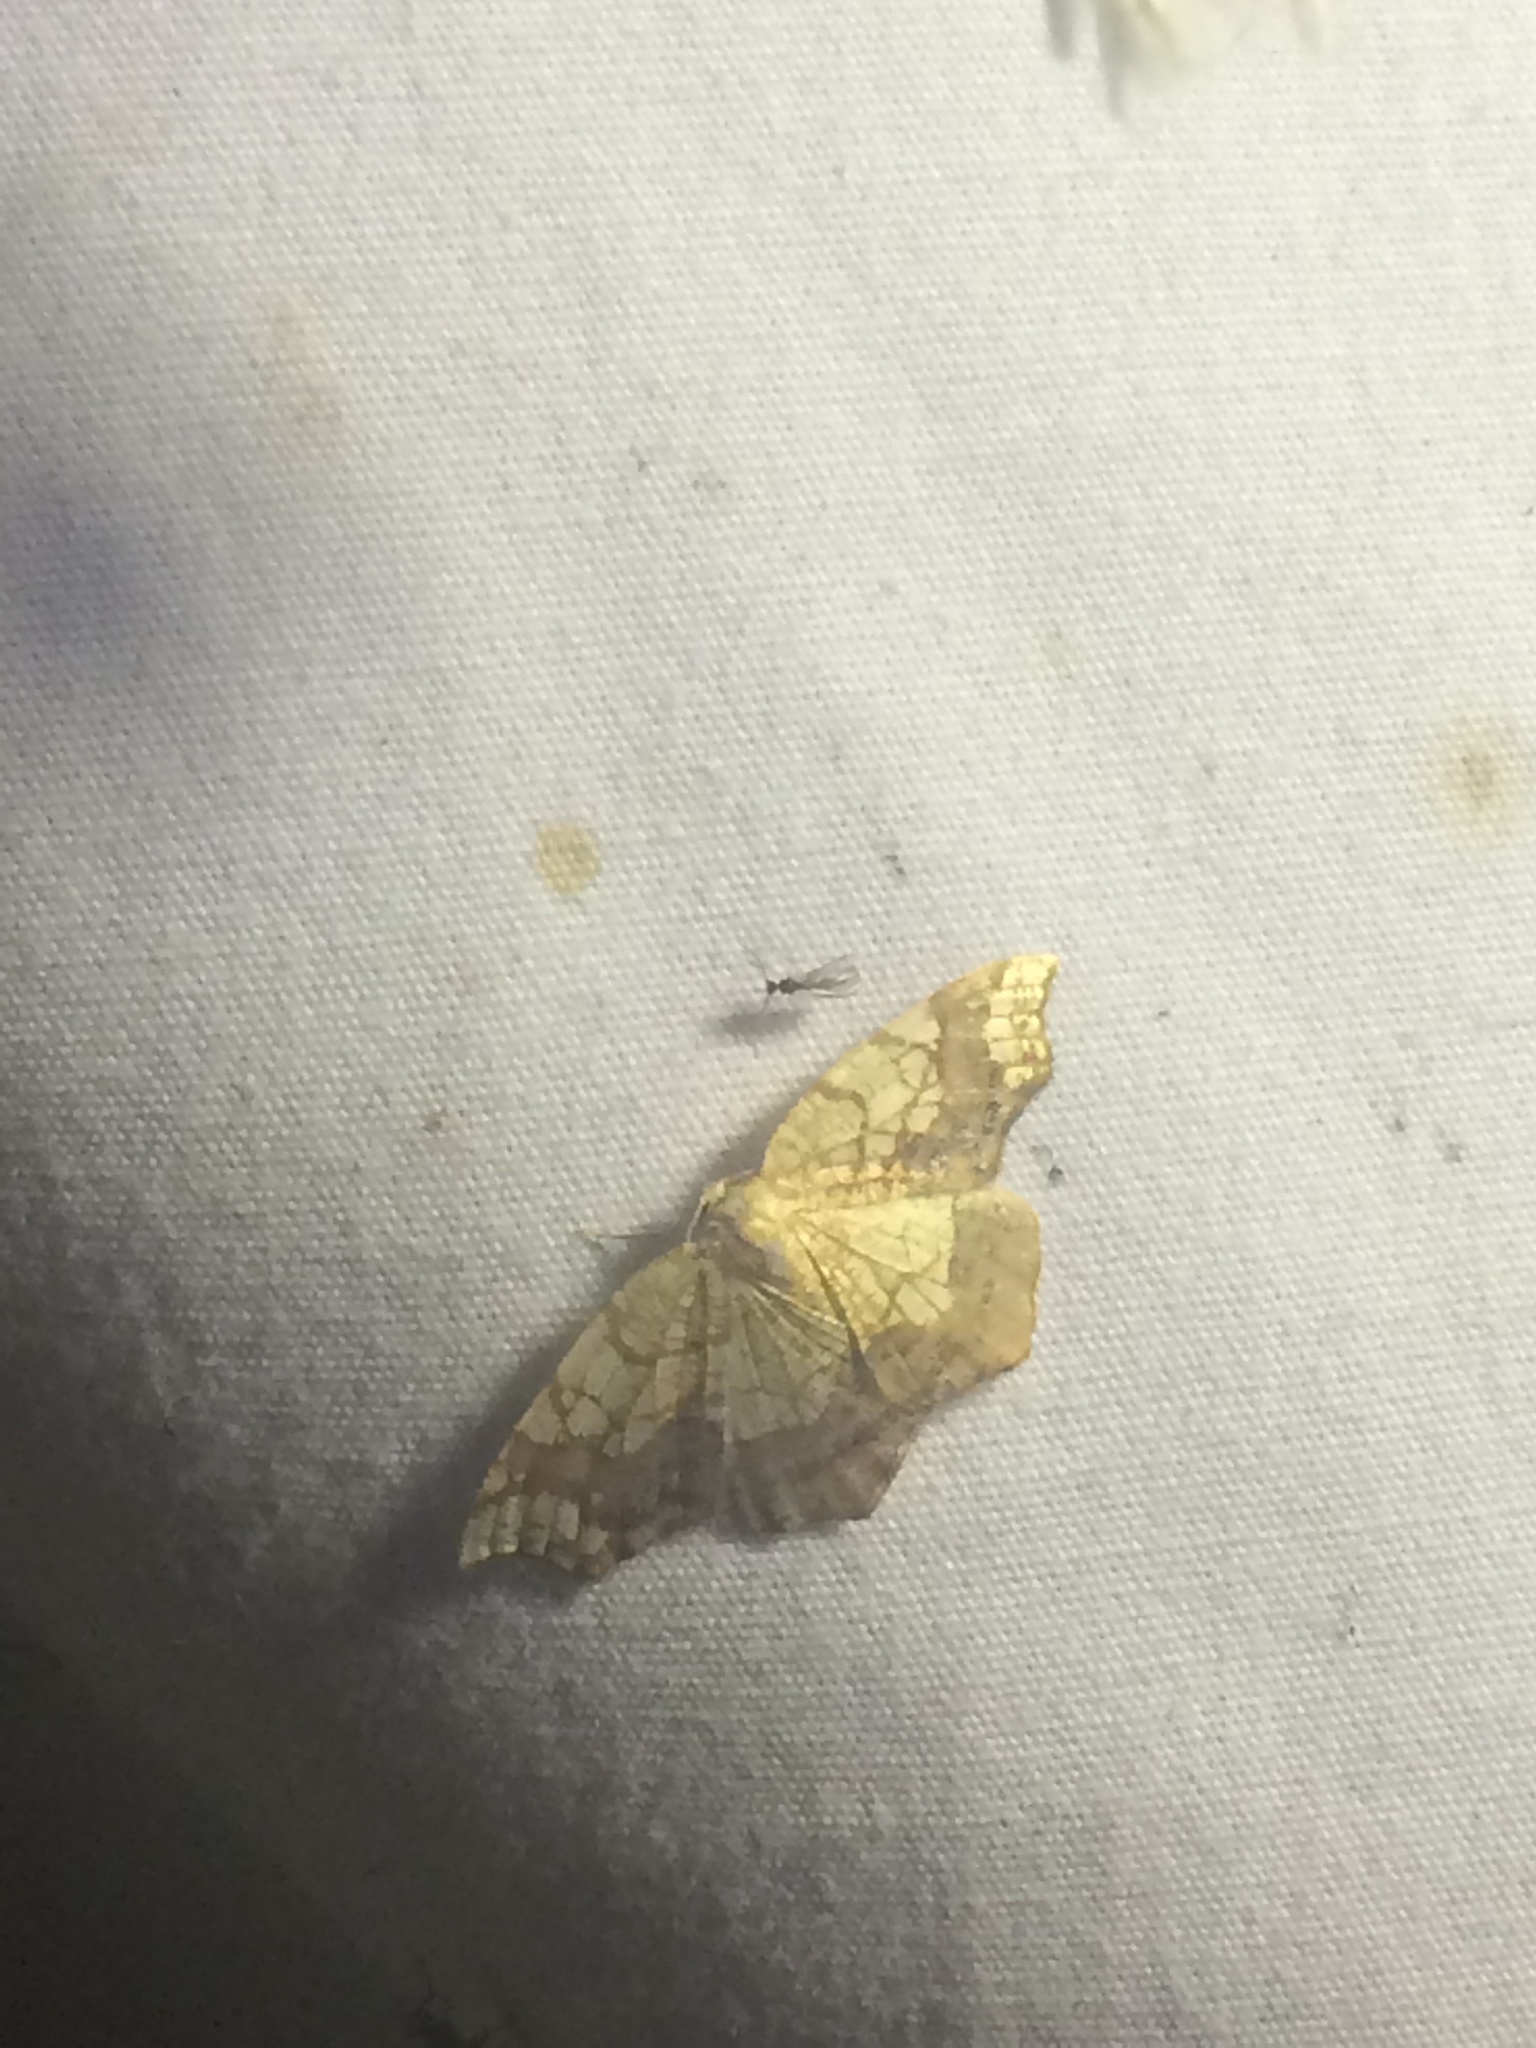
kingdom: Animalia
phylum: Arthropoda
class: Insecta
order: Lepidoptera
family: Geometridae
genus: Nematocampa
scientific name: Nematocampa resistaria
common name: Horned spanworm moth
